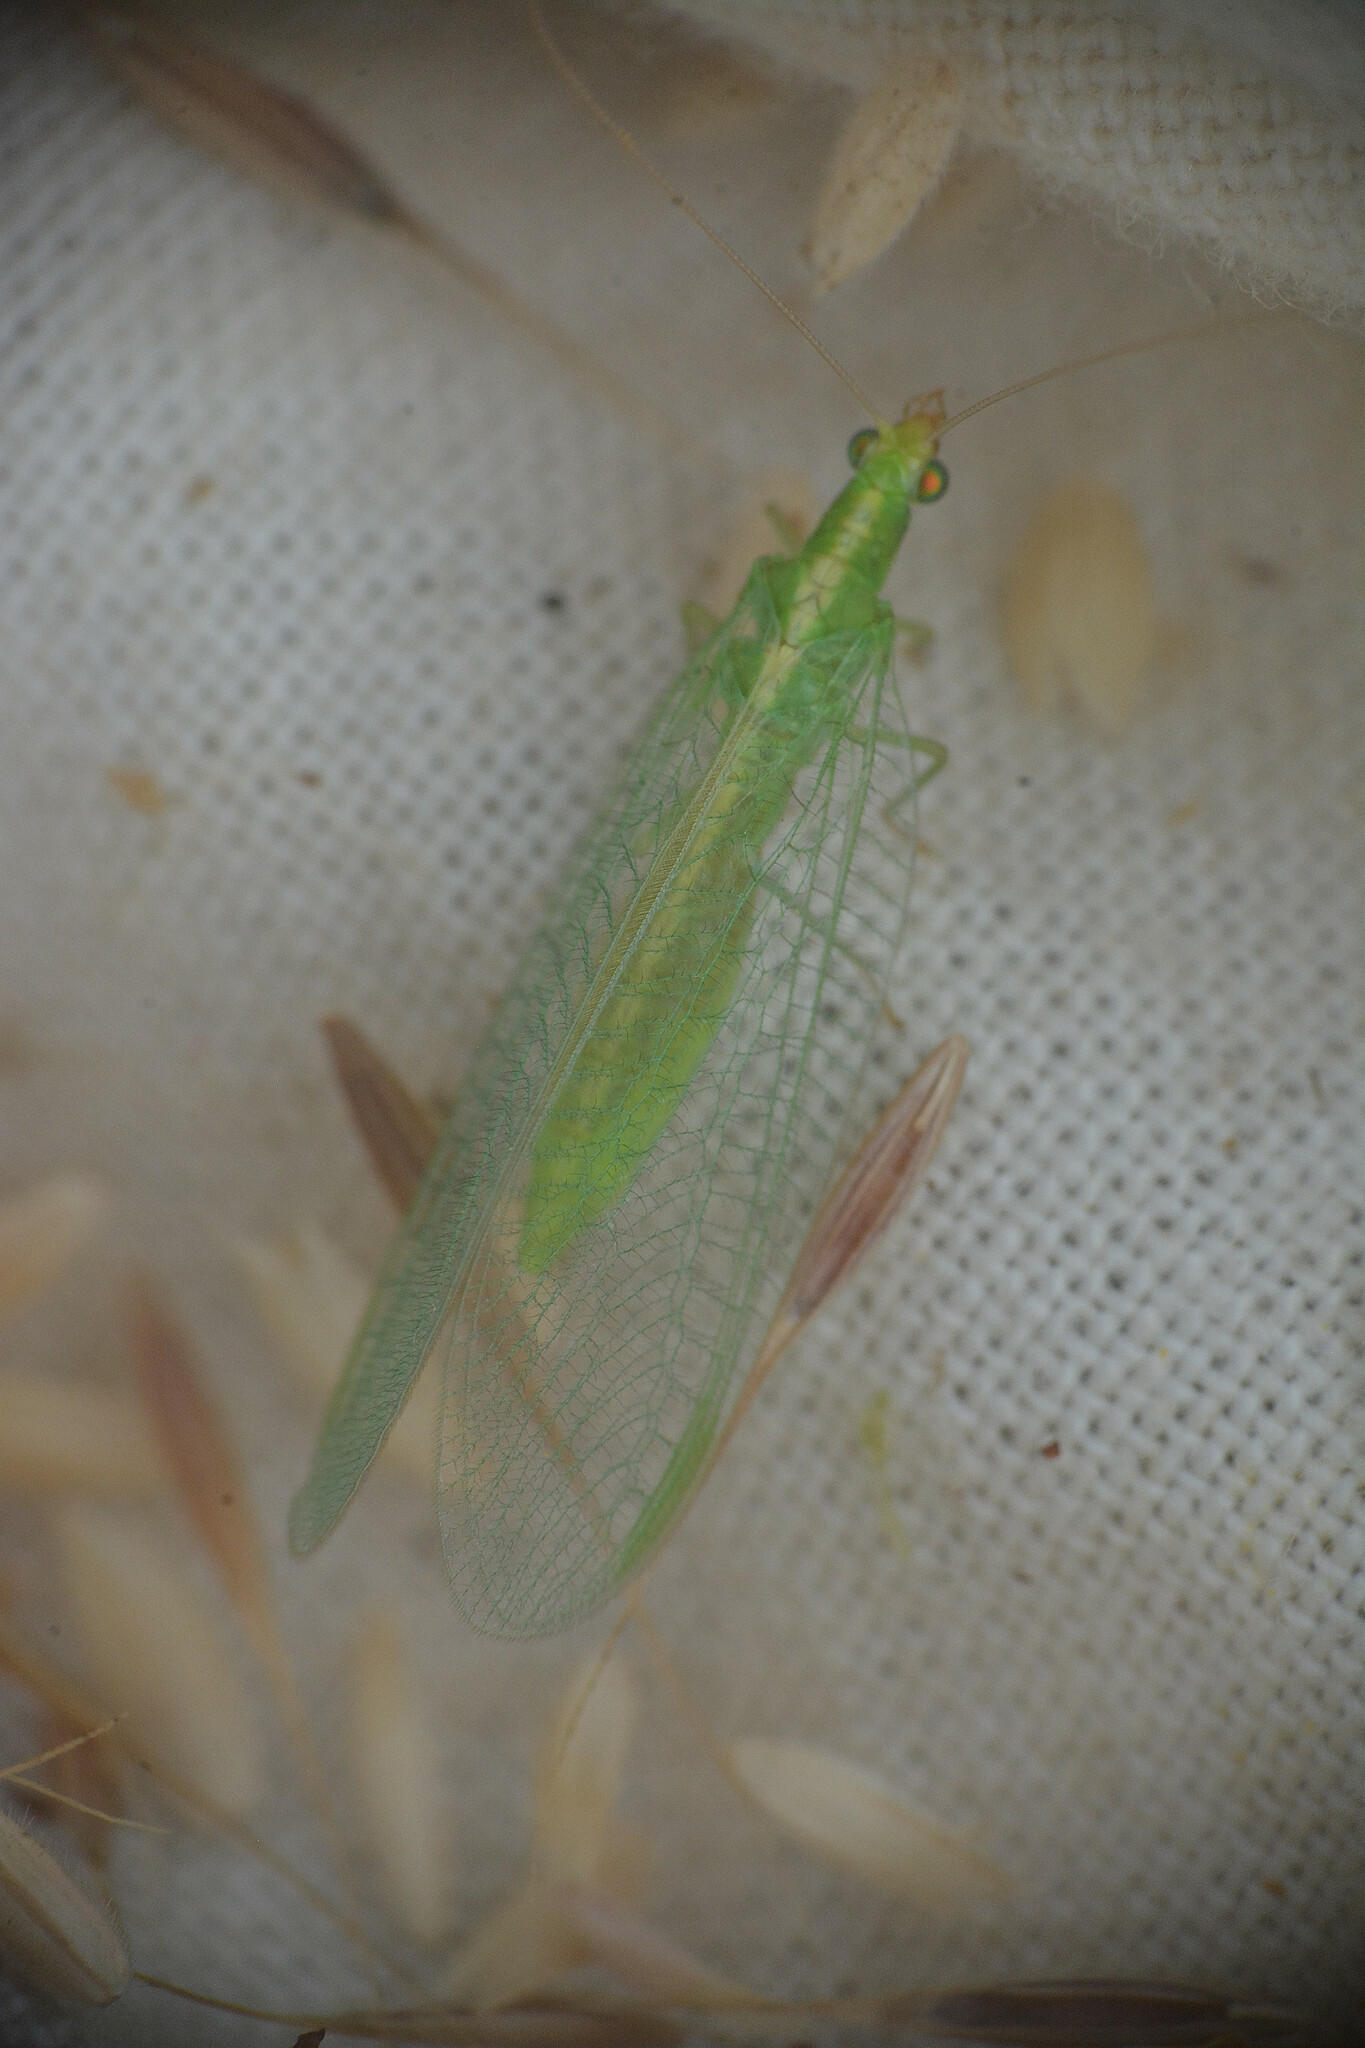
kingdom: Animalia
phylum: Arthropoda
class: Insecta
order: Neuroptera
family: Chrysopidae
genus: Chrysoperla
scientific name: Chrysoperla
